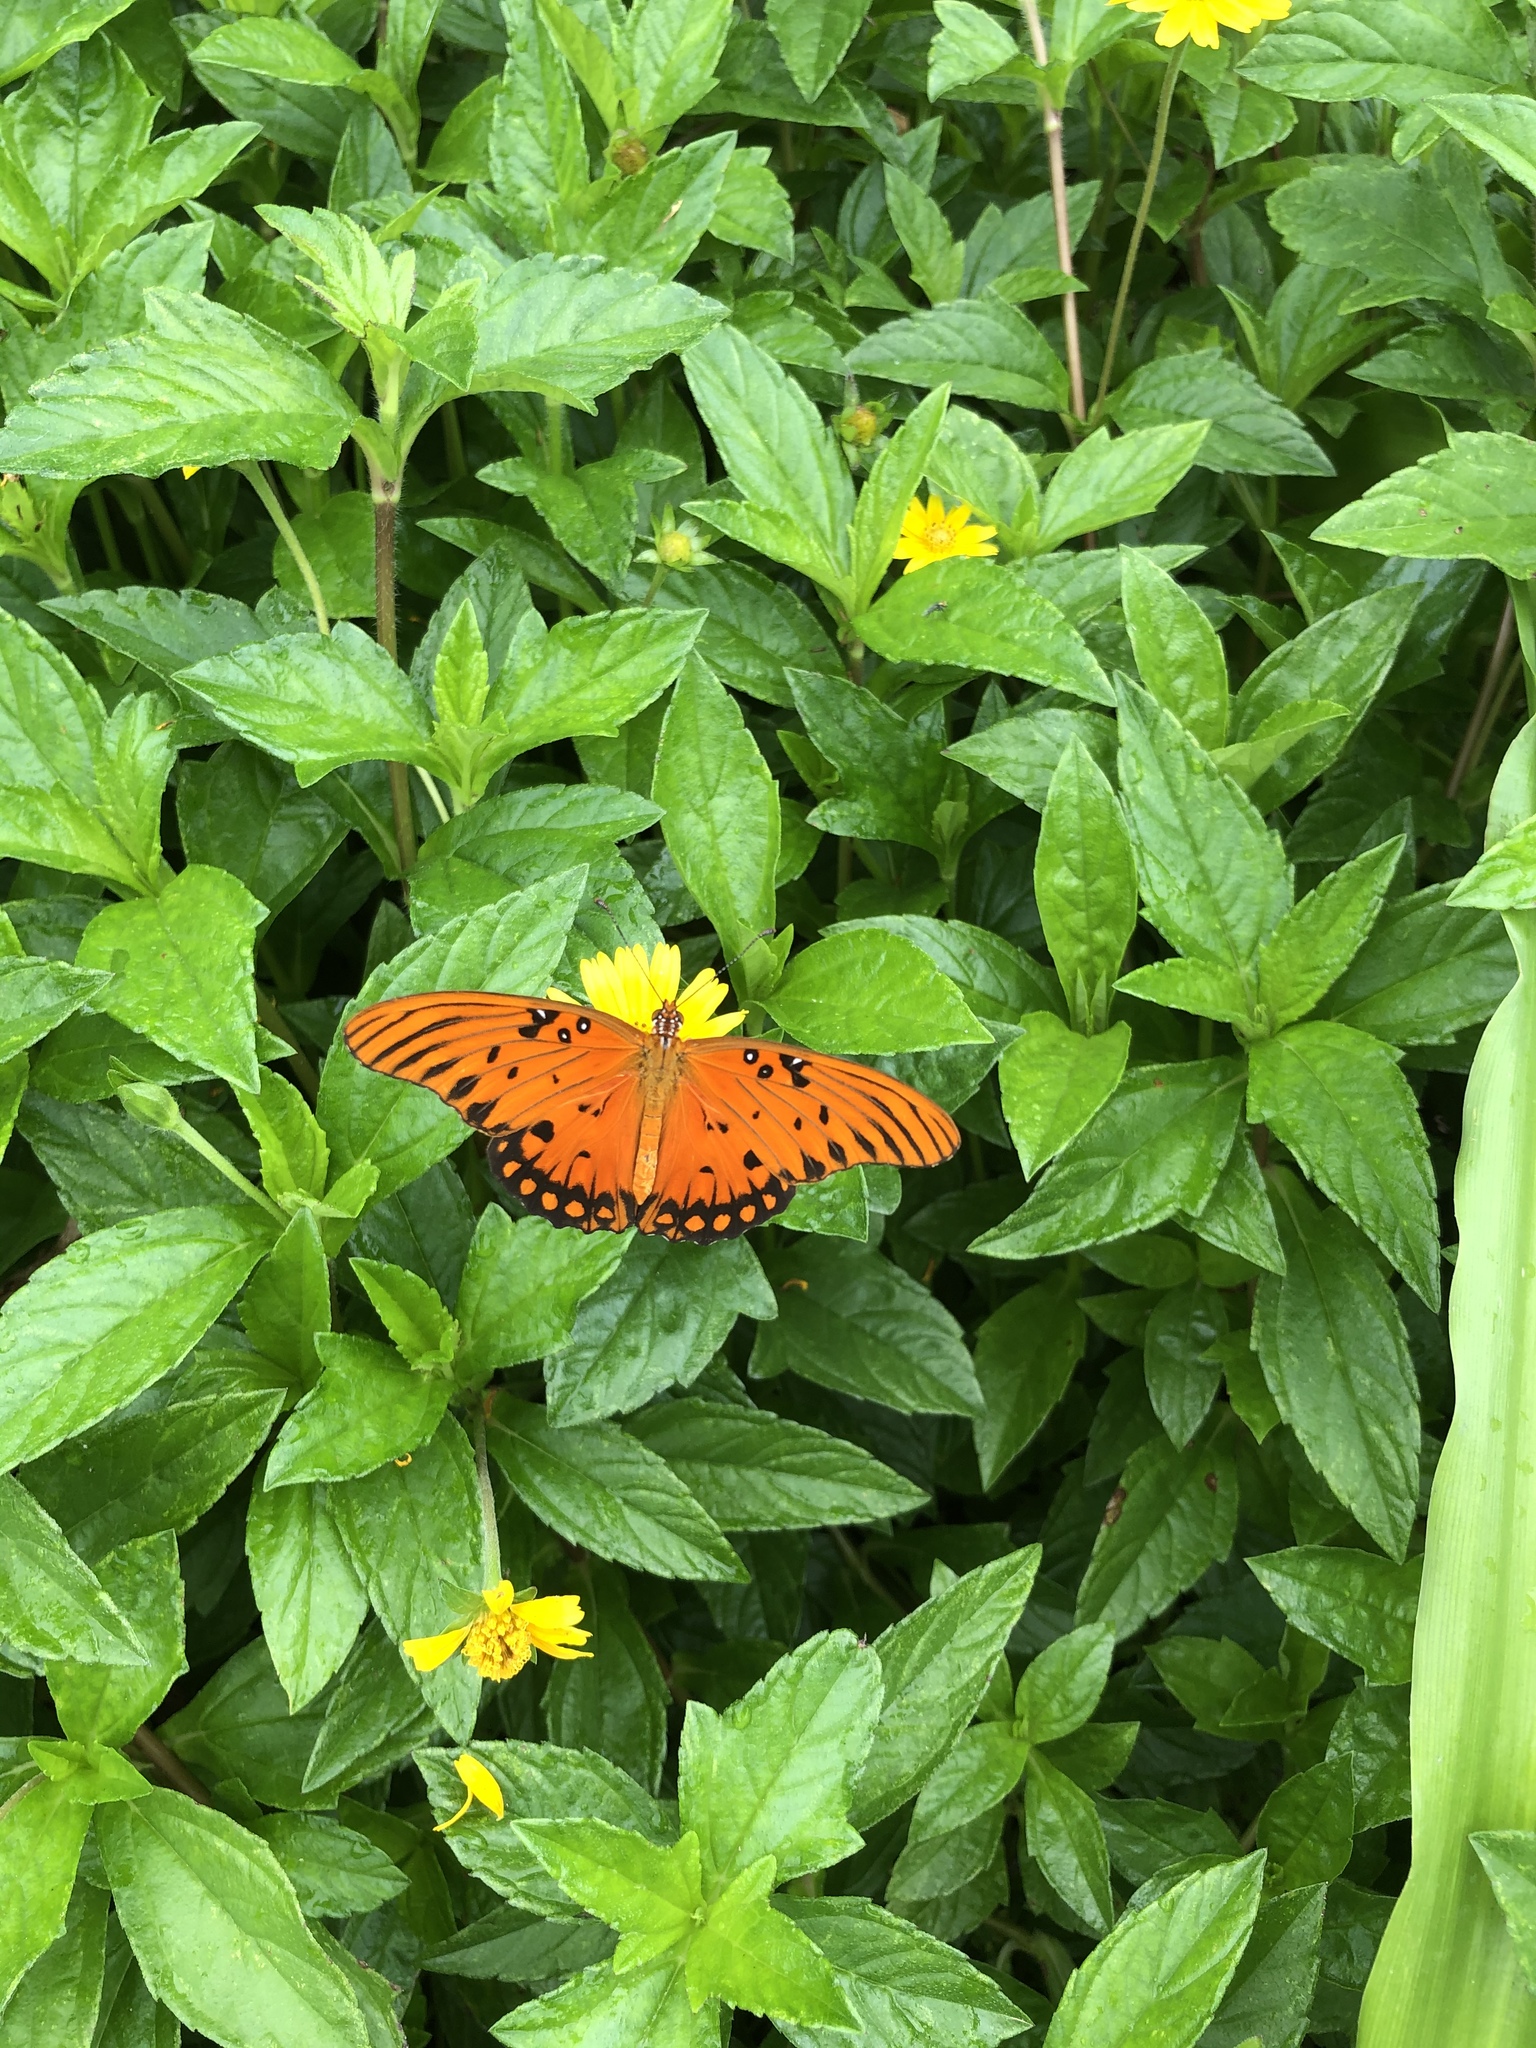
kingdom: Animalia
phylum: Arthropoda
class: Insecta
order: Lepidoptera
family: Nymphalidae
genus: Dione
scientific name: Dione vanillae
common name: Gulf fritillary
